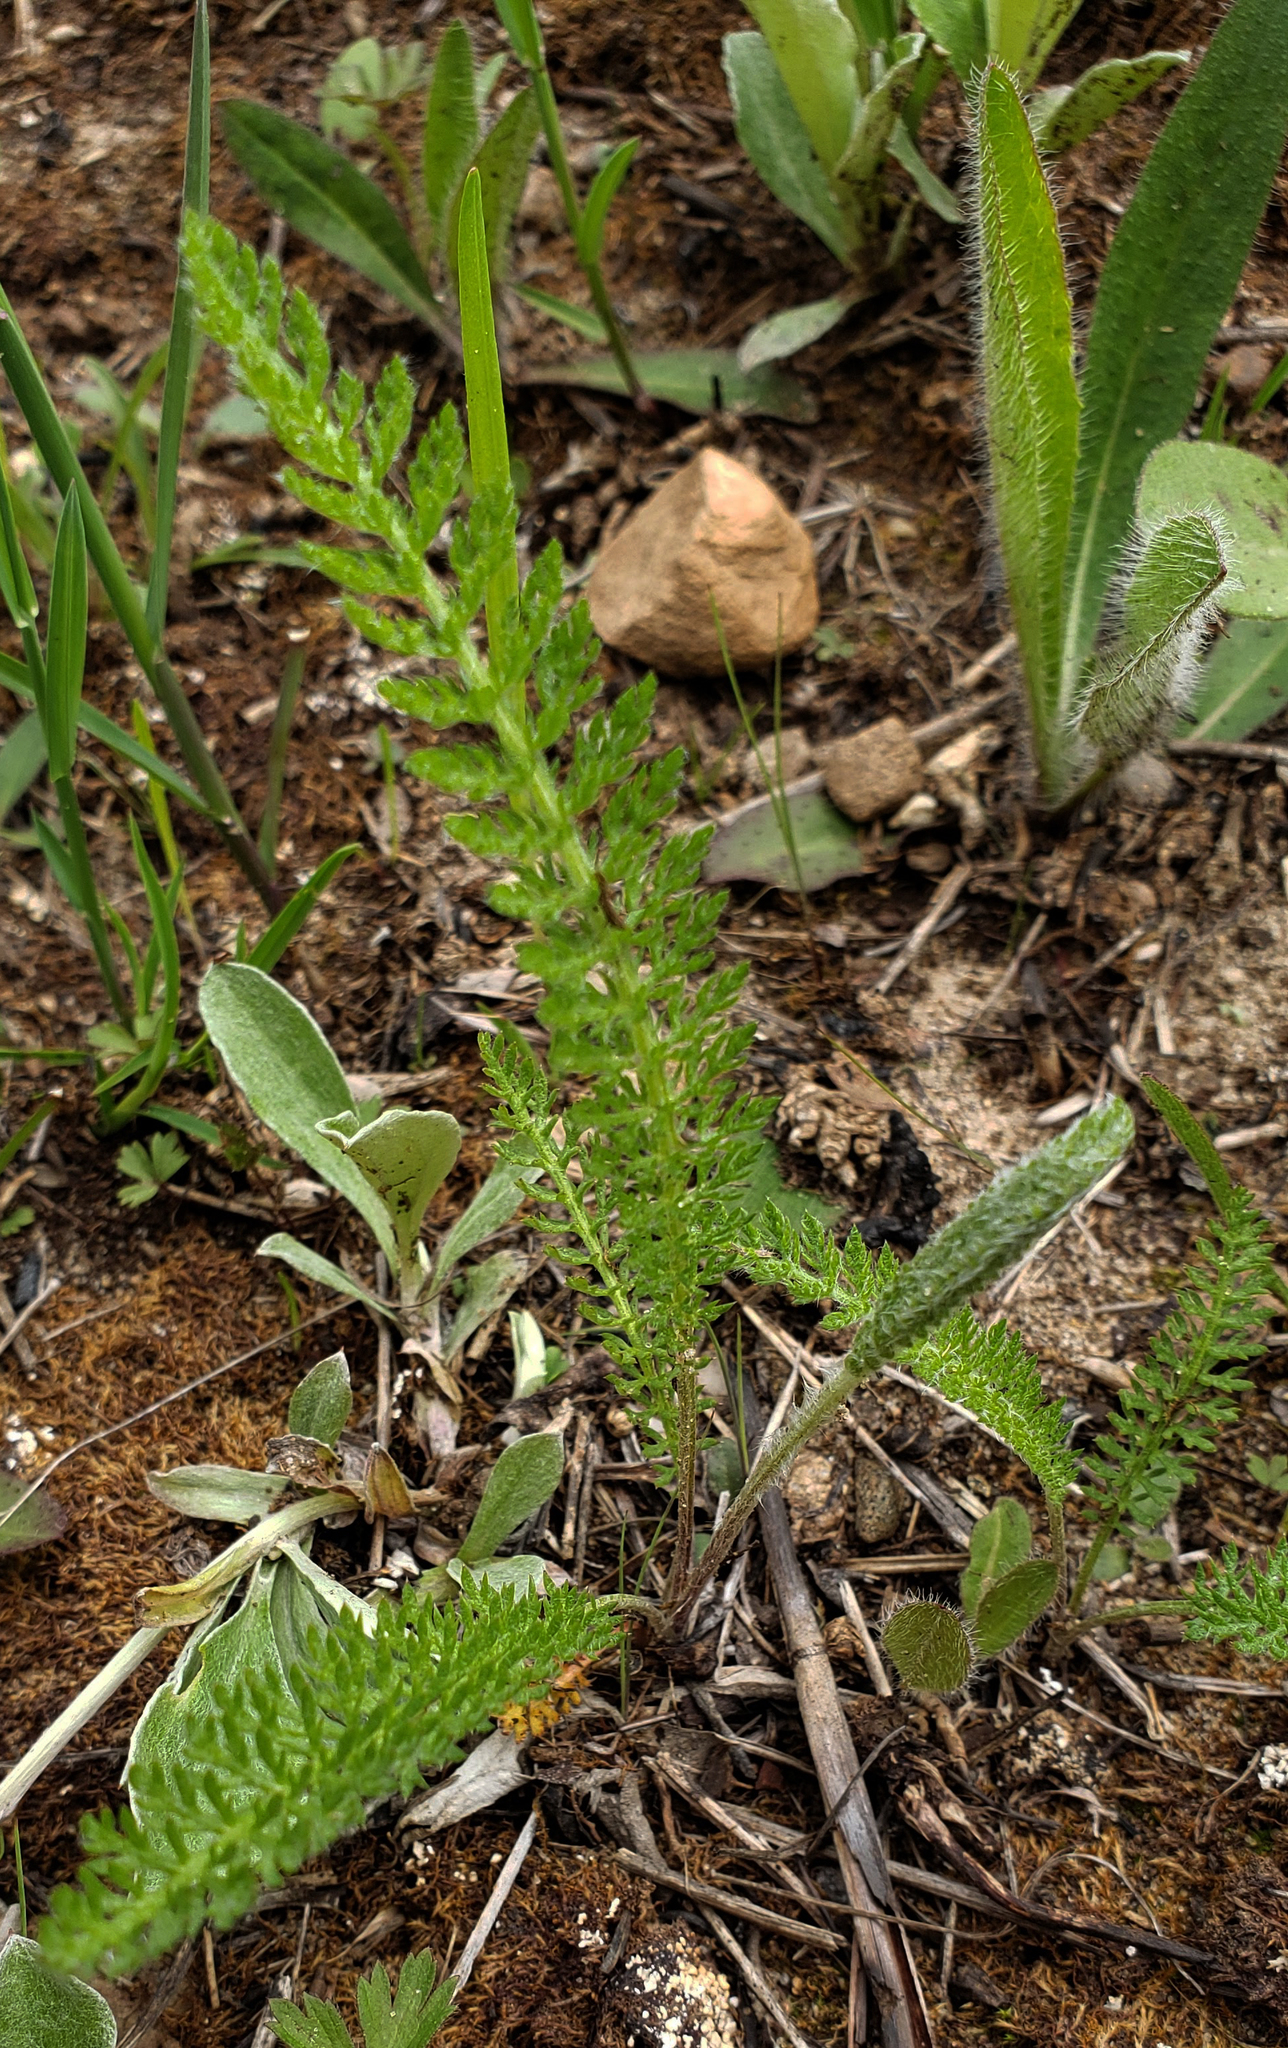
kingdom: Plantae
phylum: Tracheophyta
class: Magnoliopsida
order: Asterales
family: Asteraceae
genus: Achillea
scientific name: Achillea millefolium
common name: Yarrow
